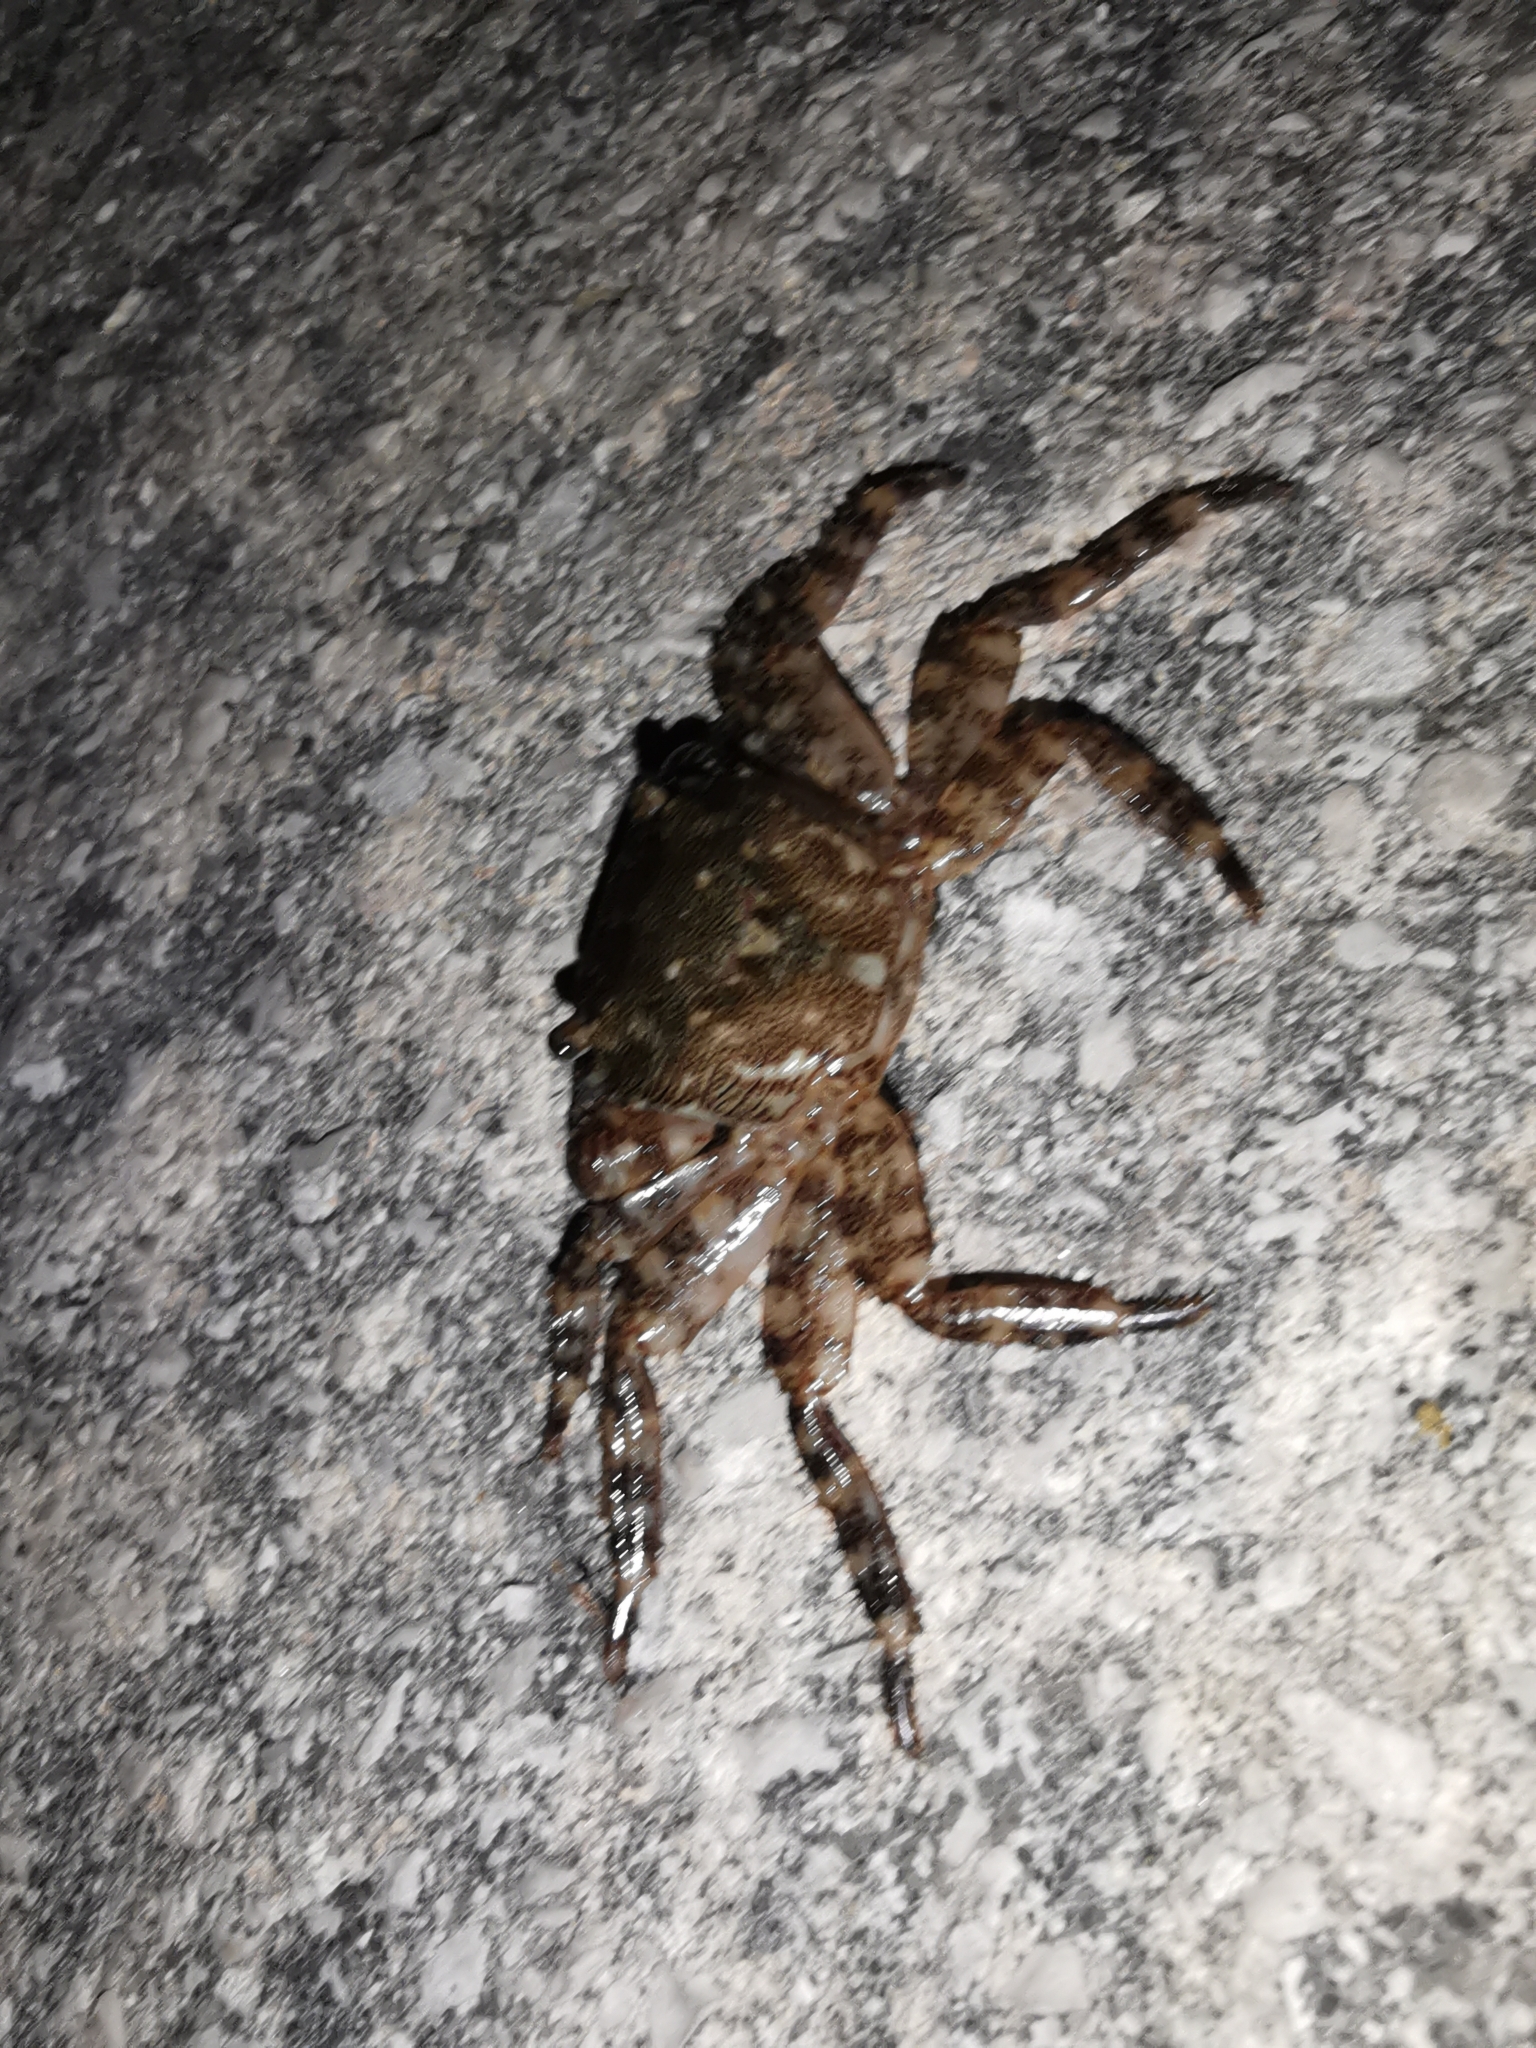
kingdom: Animalia
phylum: Arthropoda
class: Malacostraca
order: Decapoda
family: Grapsidae
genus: Pachygrapsus
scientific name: Pachygrapsus marmoratus
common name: Marbled rock crab
